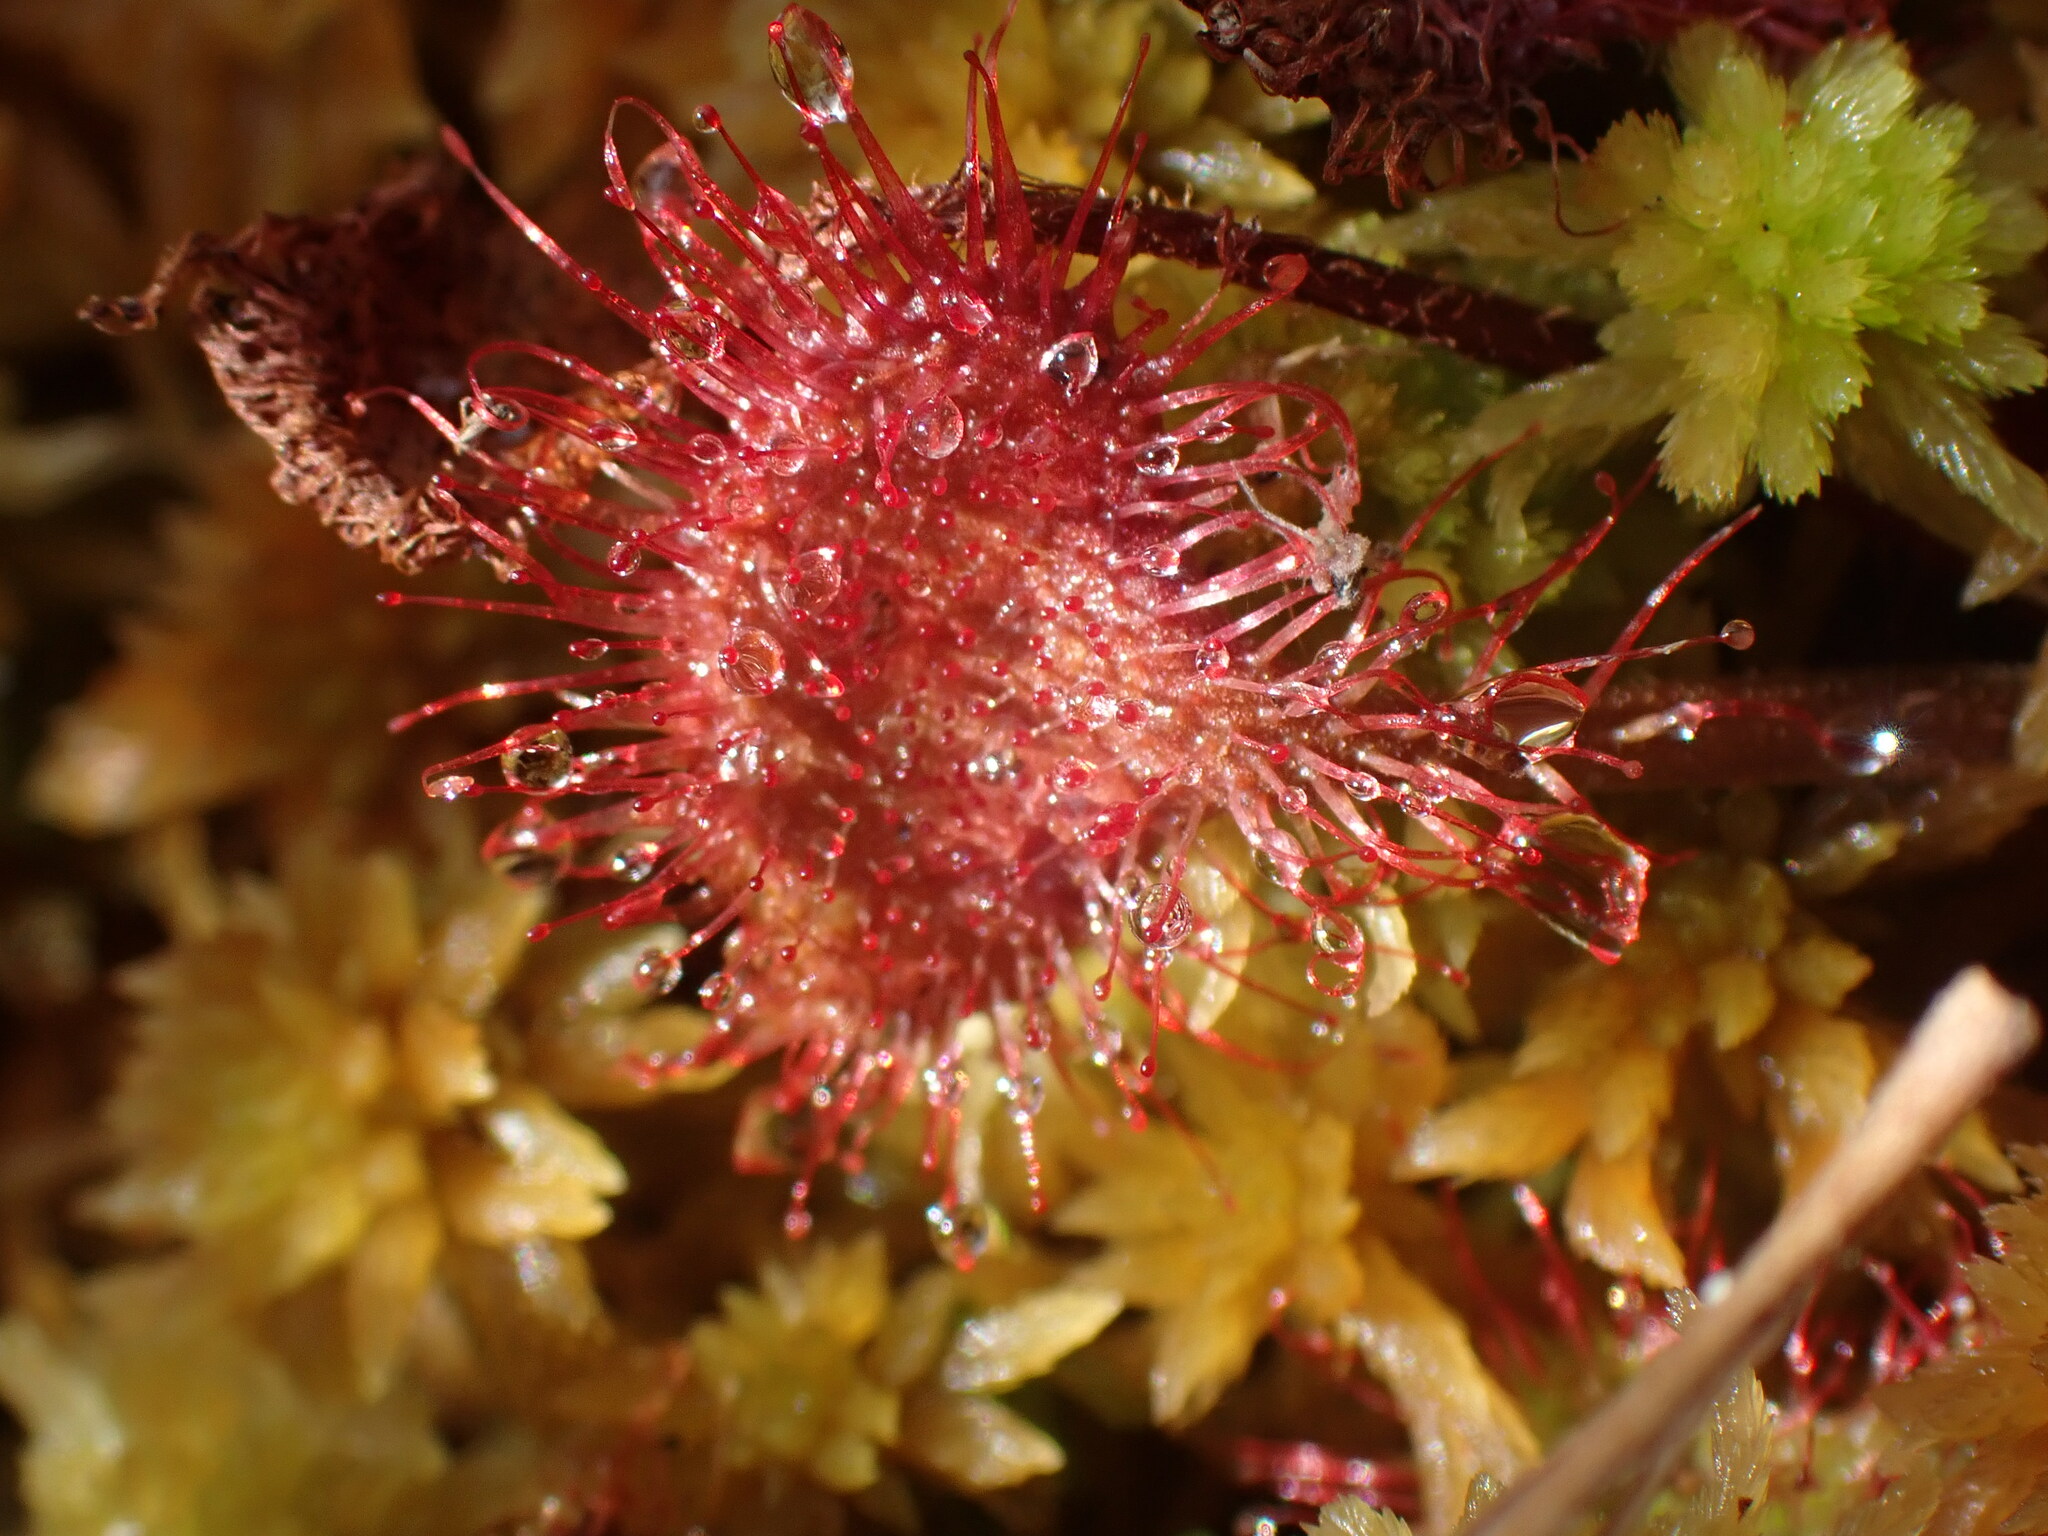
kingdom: Plantae
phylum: Tracheophyta
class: Magnoliopsida
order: Caryophyllales
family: Droseraceae
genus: Drosera
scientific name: Drosera rotundifolia
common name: Round-leaved sundew
